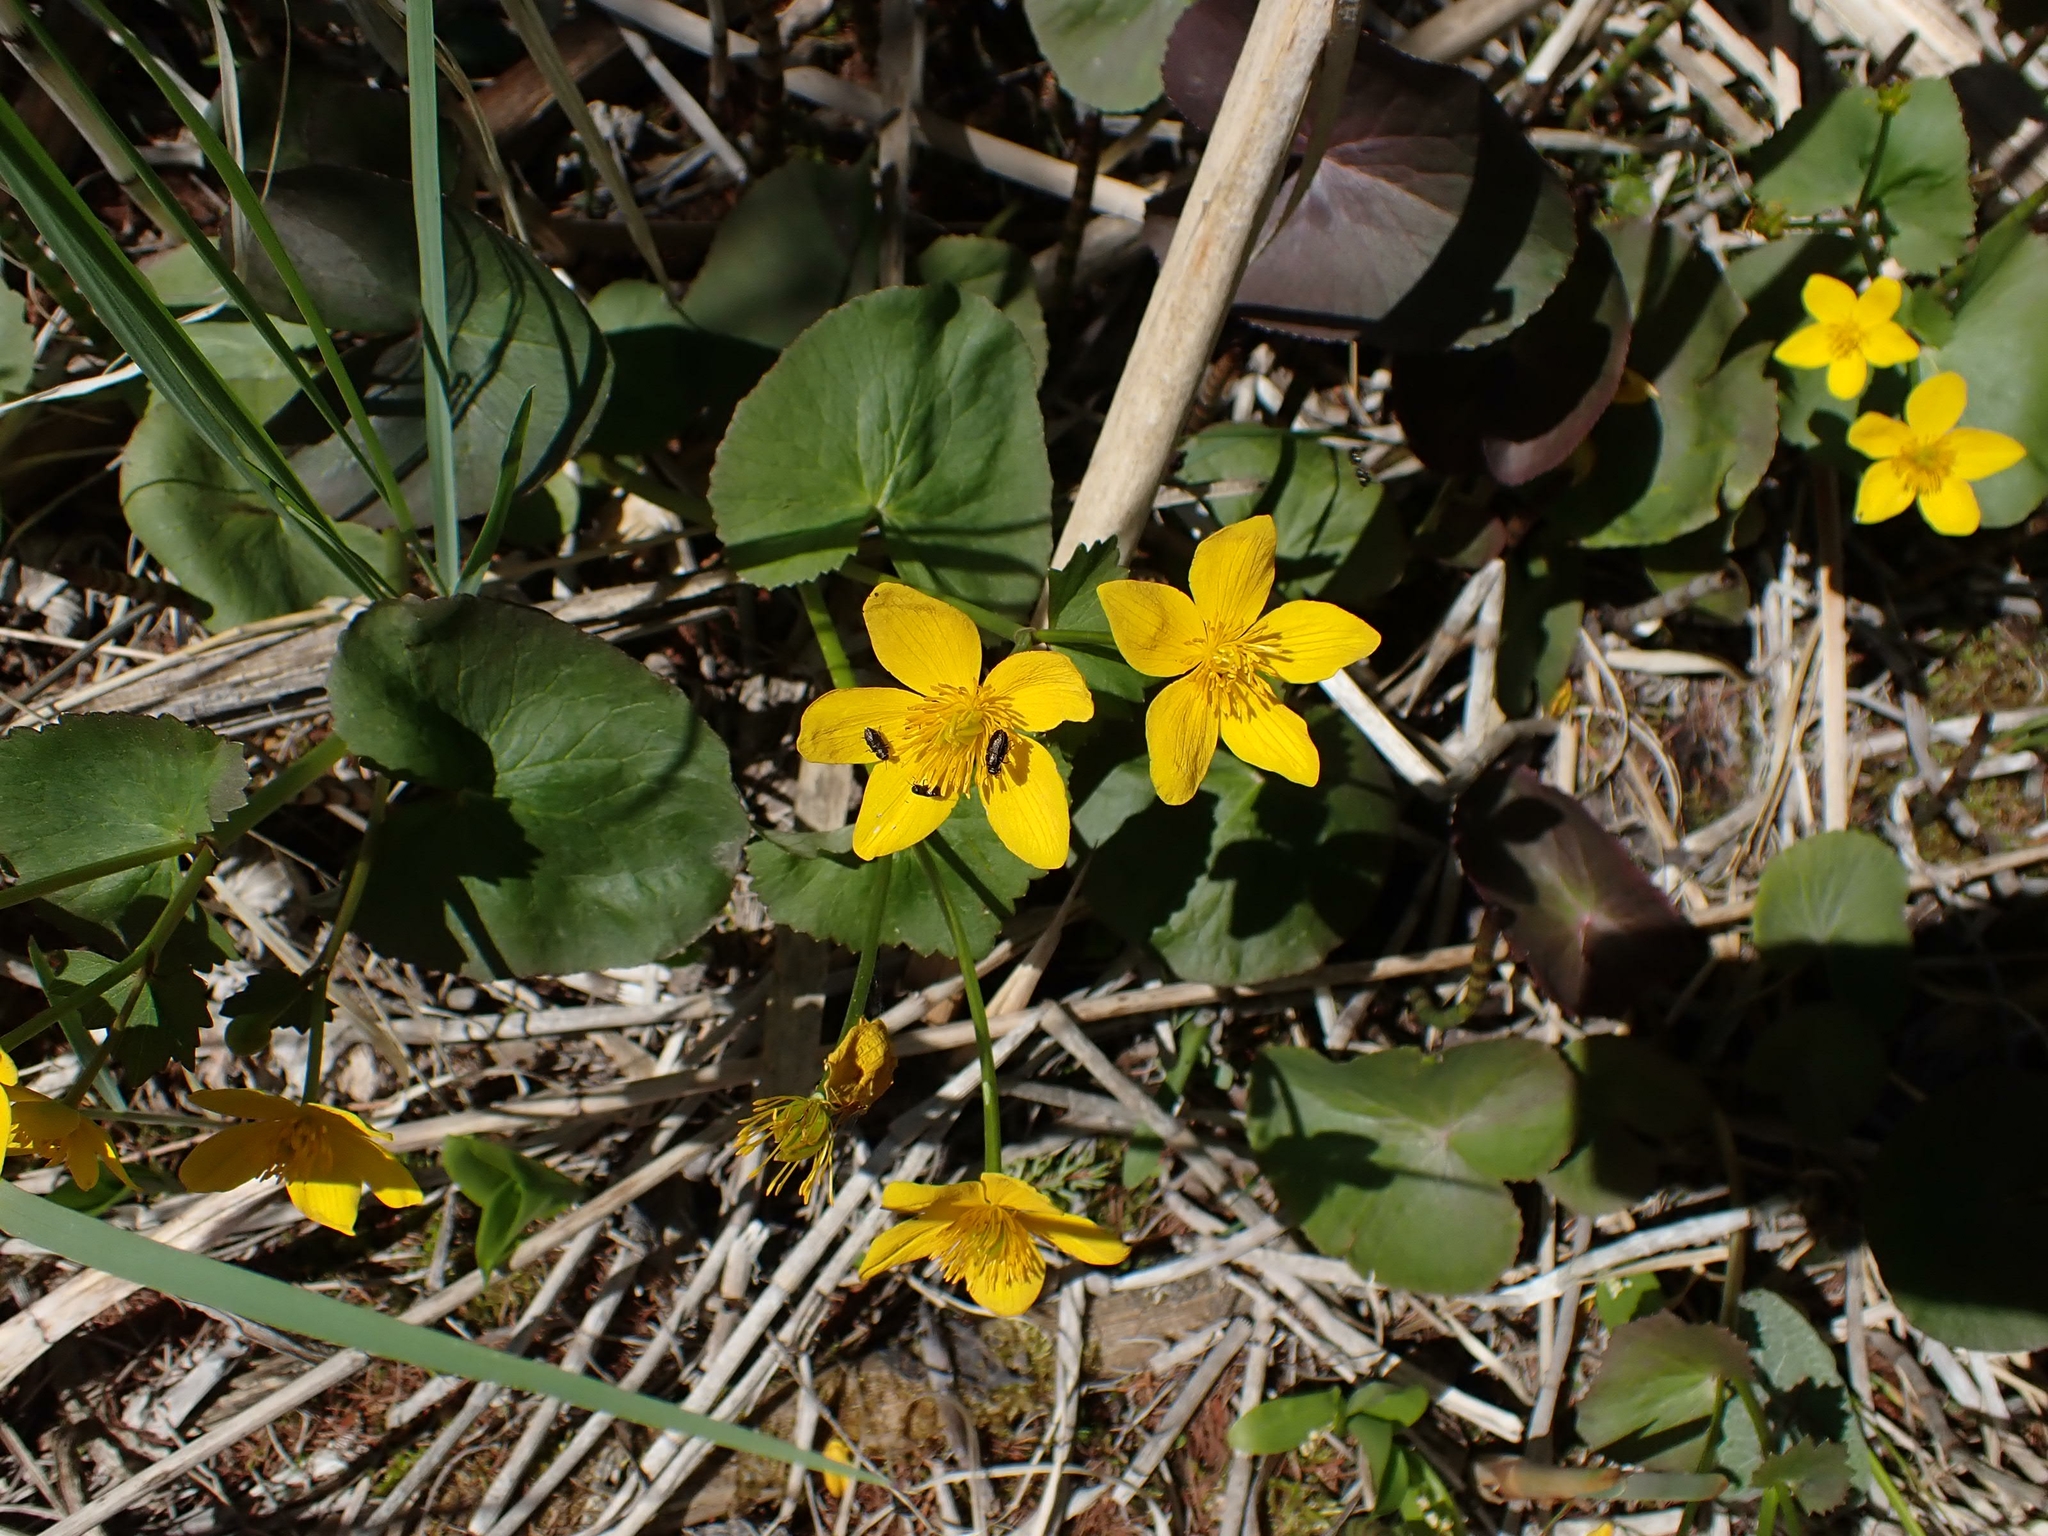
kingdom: Plantae
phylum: Tracheophyta
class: Magnoliopsida
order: Ranunculales
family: Ranunculaceae
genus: Caltha
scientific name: Caltha palustris
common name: Marsh marigold
